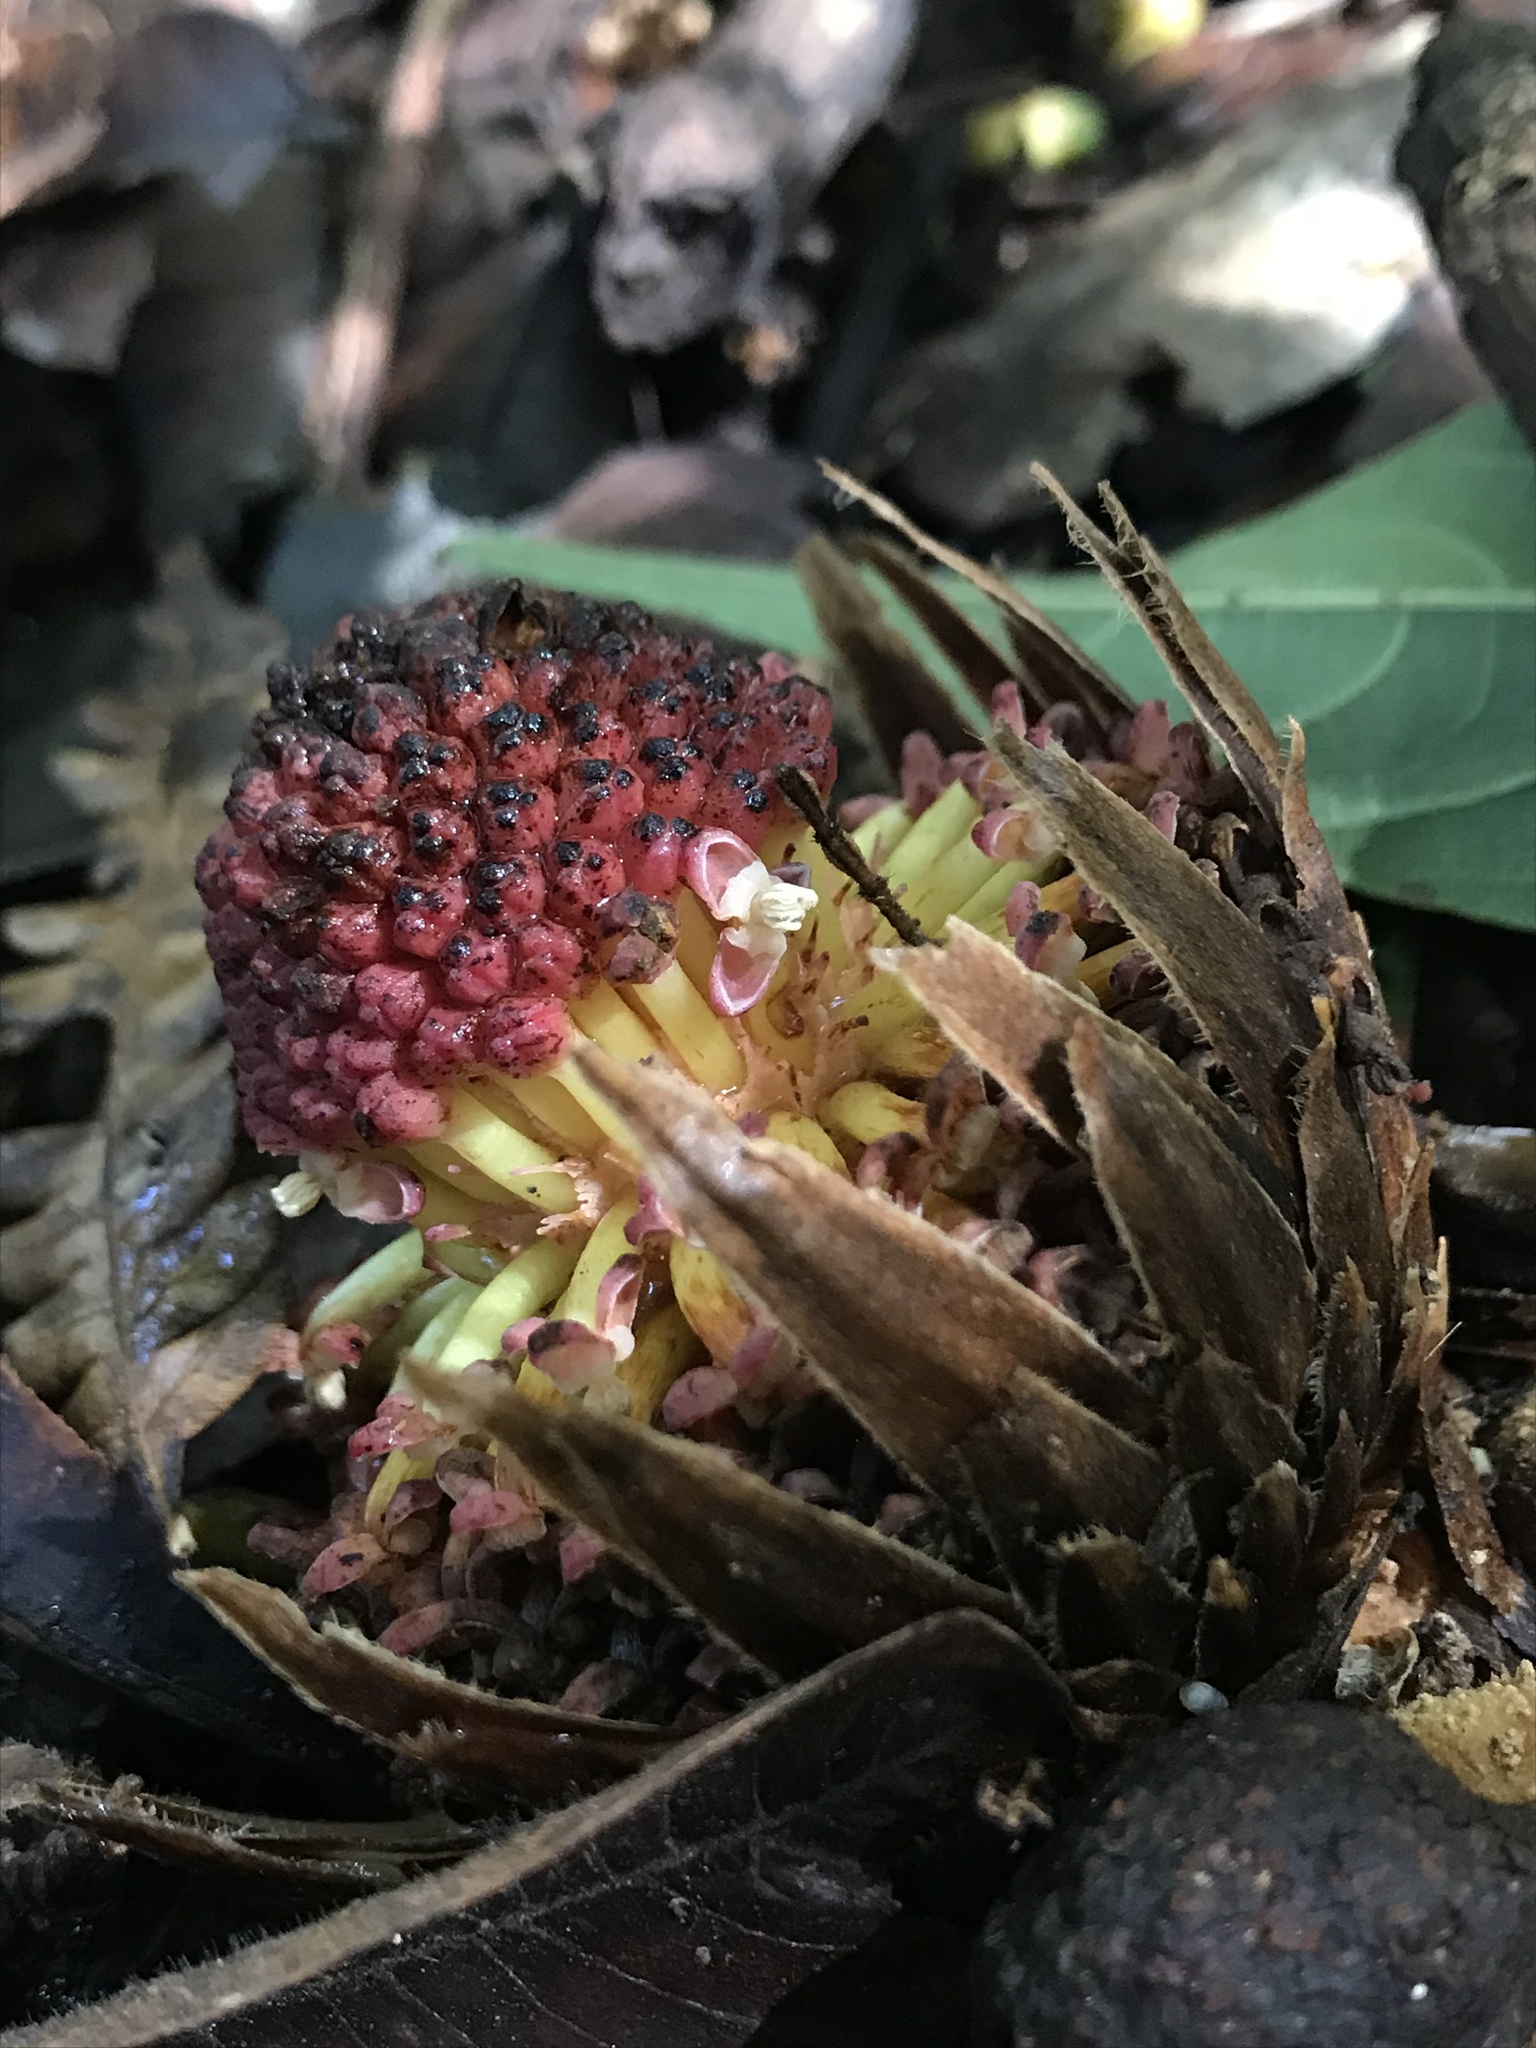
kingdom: Plantae
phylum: Tracheophyta
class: Magnoliopsida
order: Santalales
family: Balanophoraceae
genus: Langsdorffia
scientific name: Langsdorffia hypogaea
